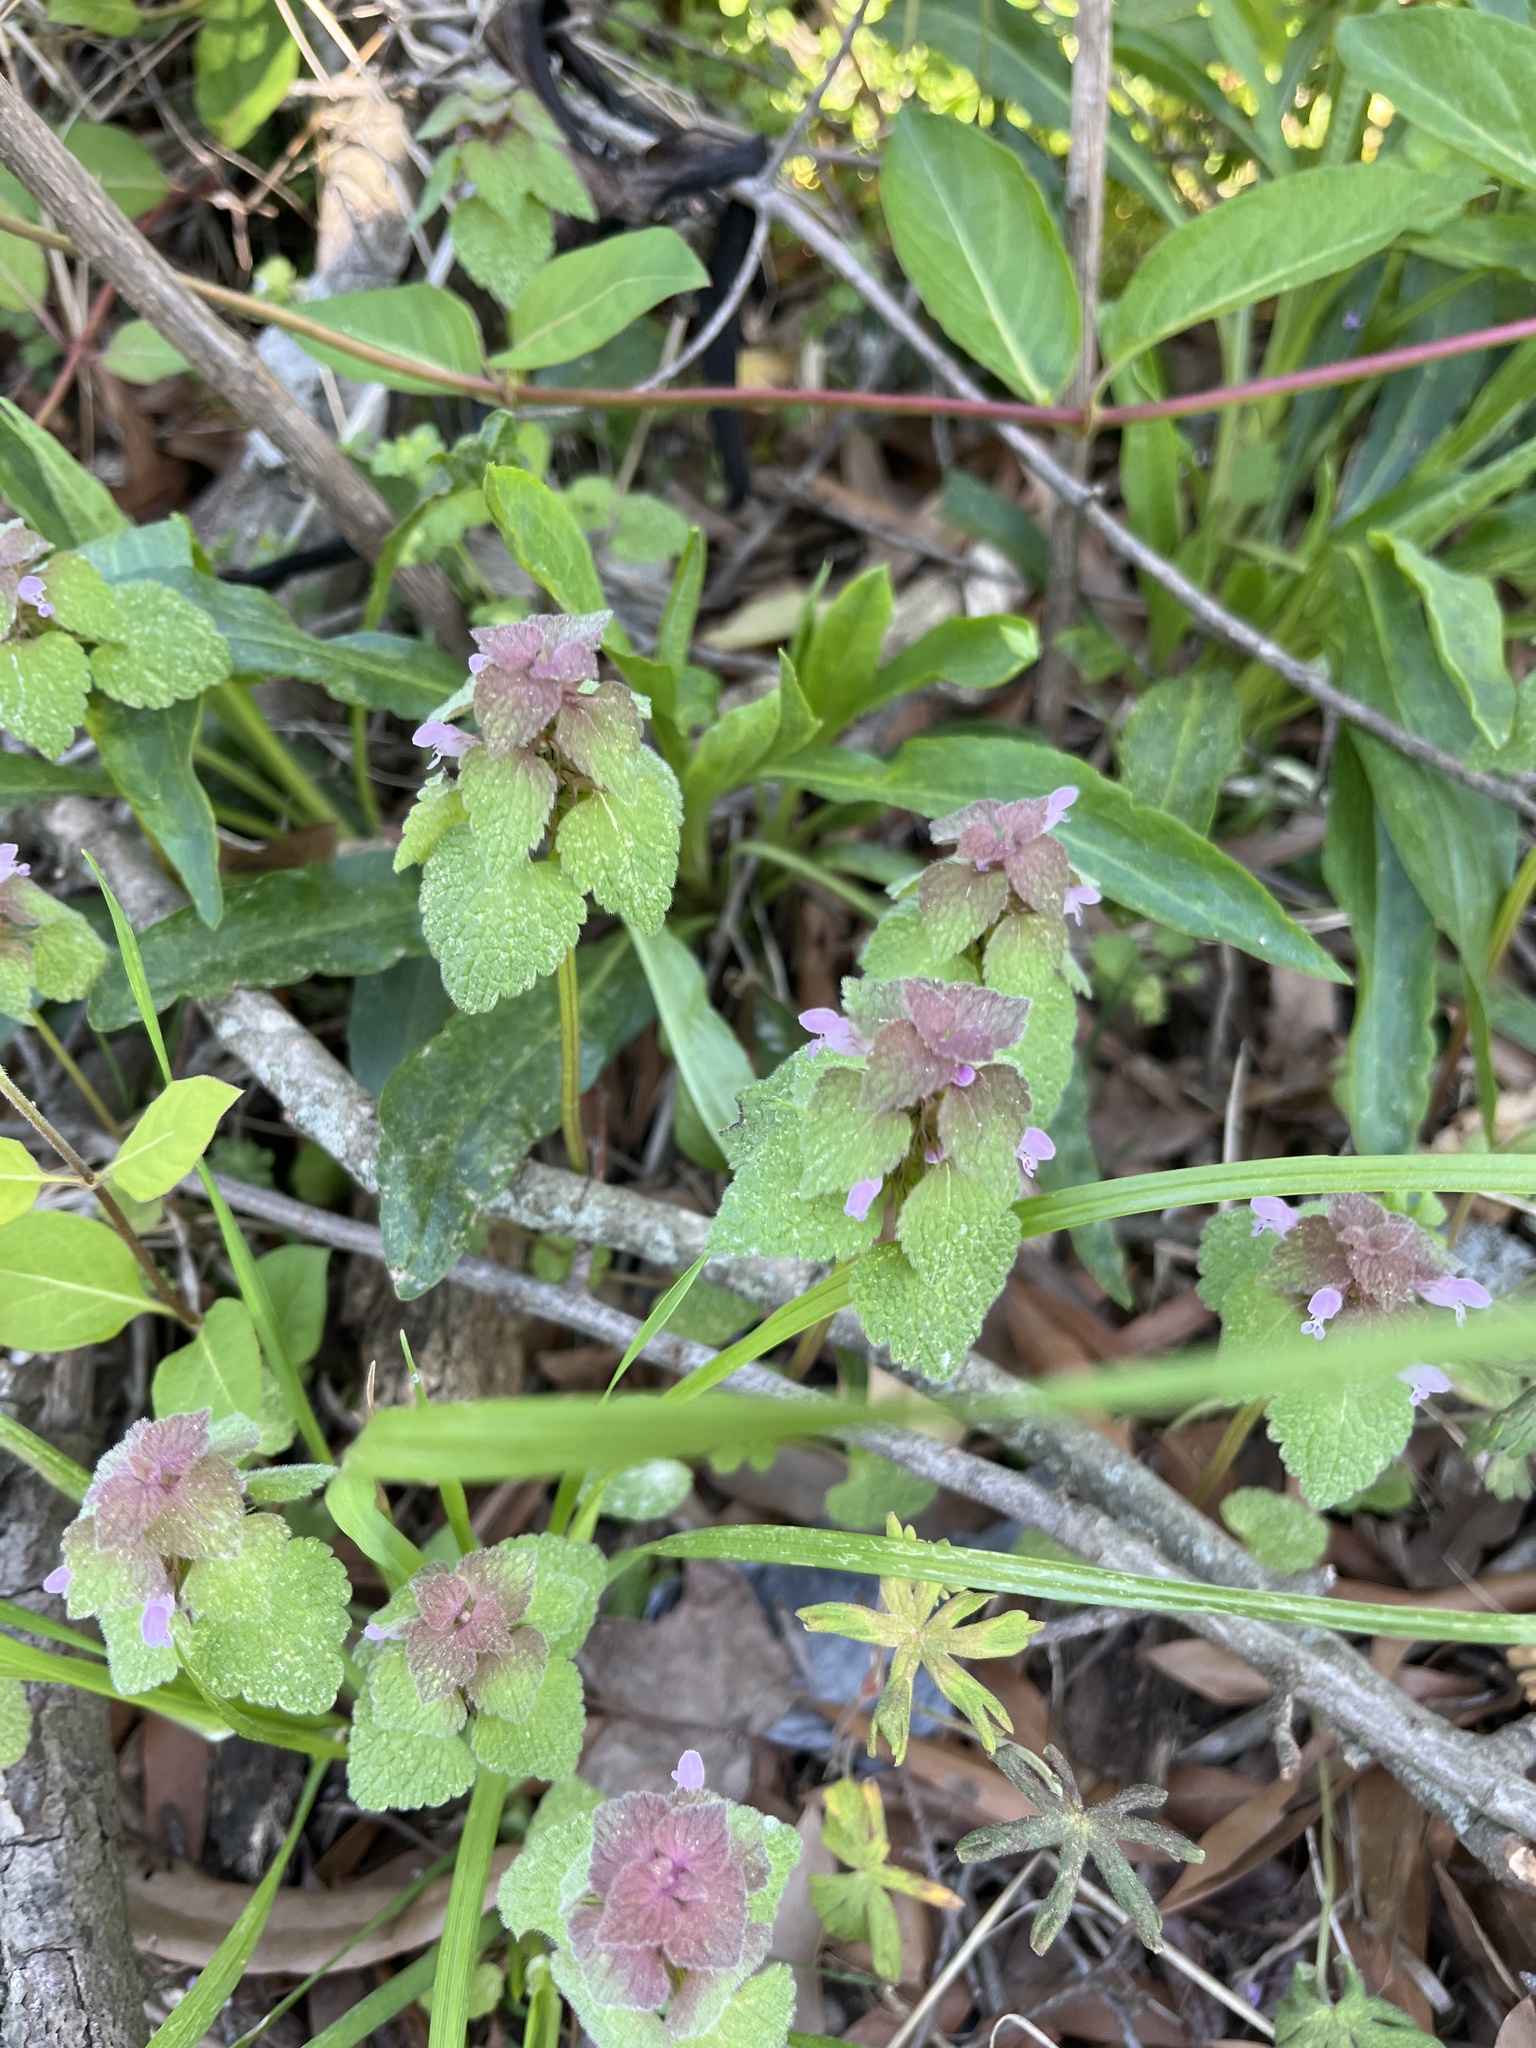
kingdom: Plantae
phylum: Tracheophyta
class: Magnoliopsida
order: Lamiales
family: Lamiaceae
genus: Lamium
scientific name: Lamium purpureum
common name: Red dead-nettle
